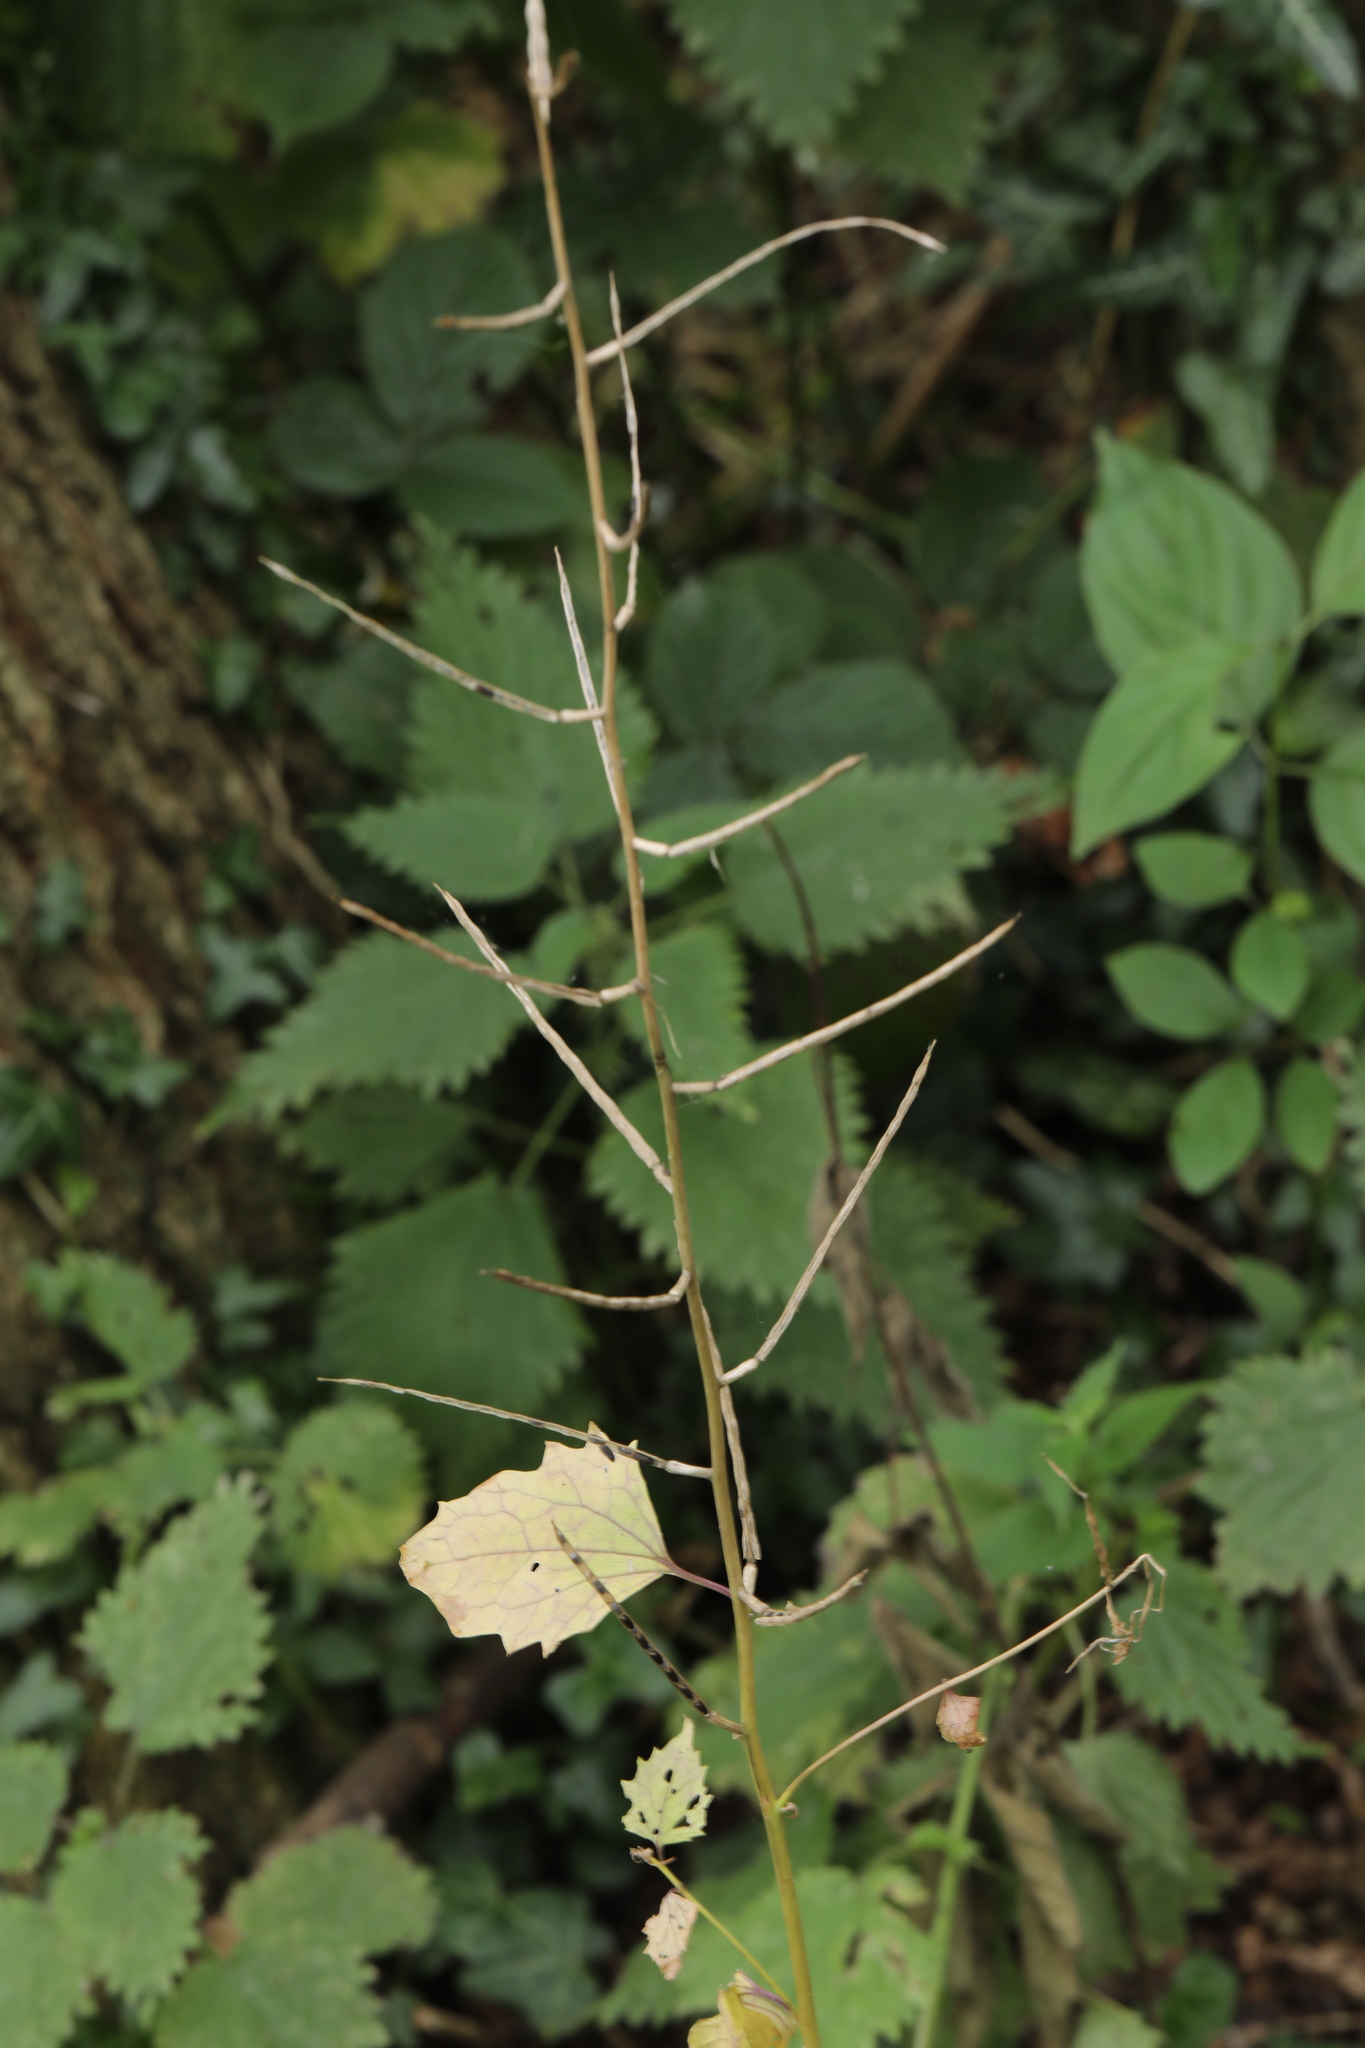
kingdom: Plantae
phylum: Tracheophyta
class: Magnoliopsida
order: Brassicales
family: Brassicaceae
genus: Alliaria
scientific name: Alliaria petiolata
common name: Garlic mustard
